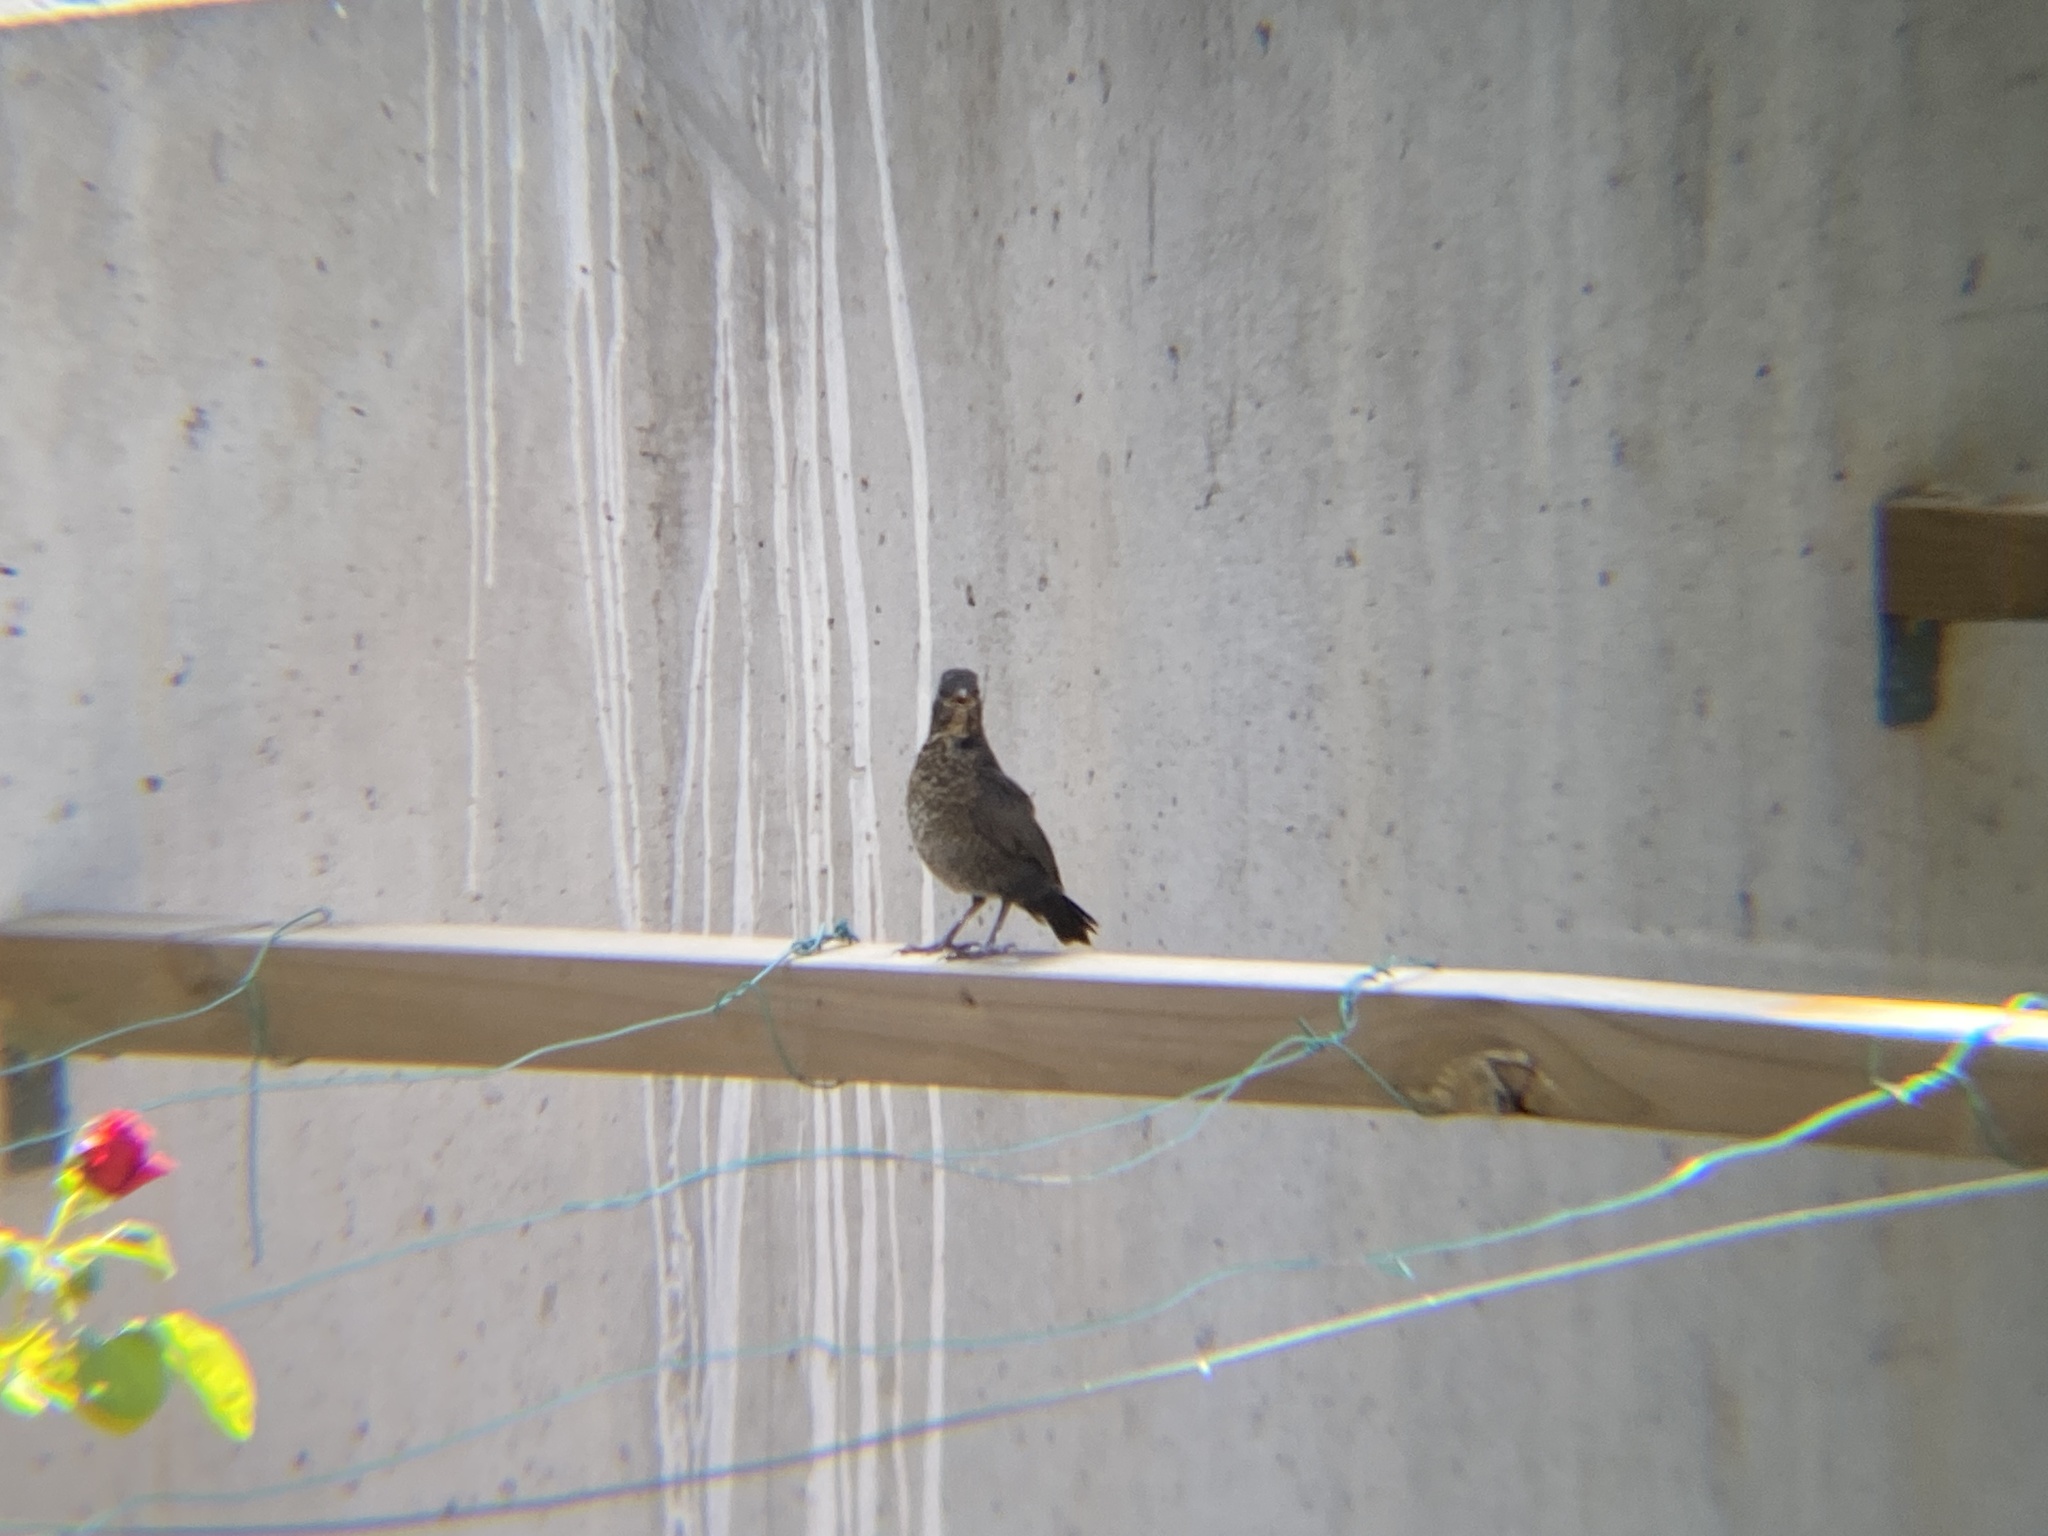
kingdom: Animalia
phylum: Chordata
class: Aves
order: Passeriformes
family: Turdidae
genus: Turdus
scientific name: Turdus merula
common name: Common blackbird
